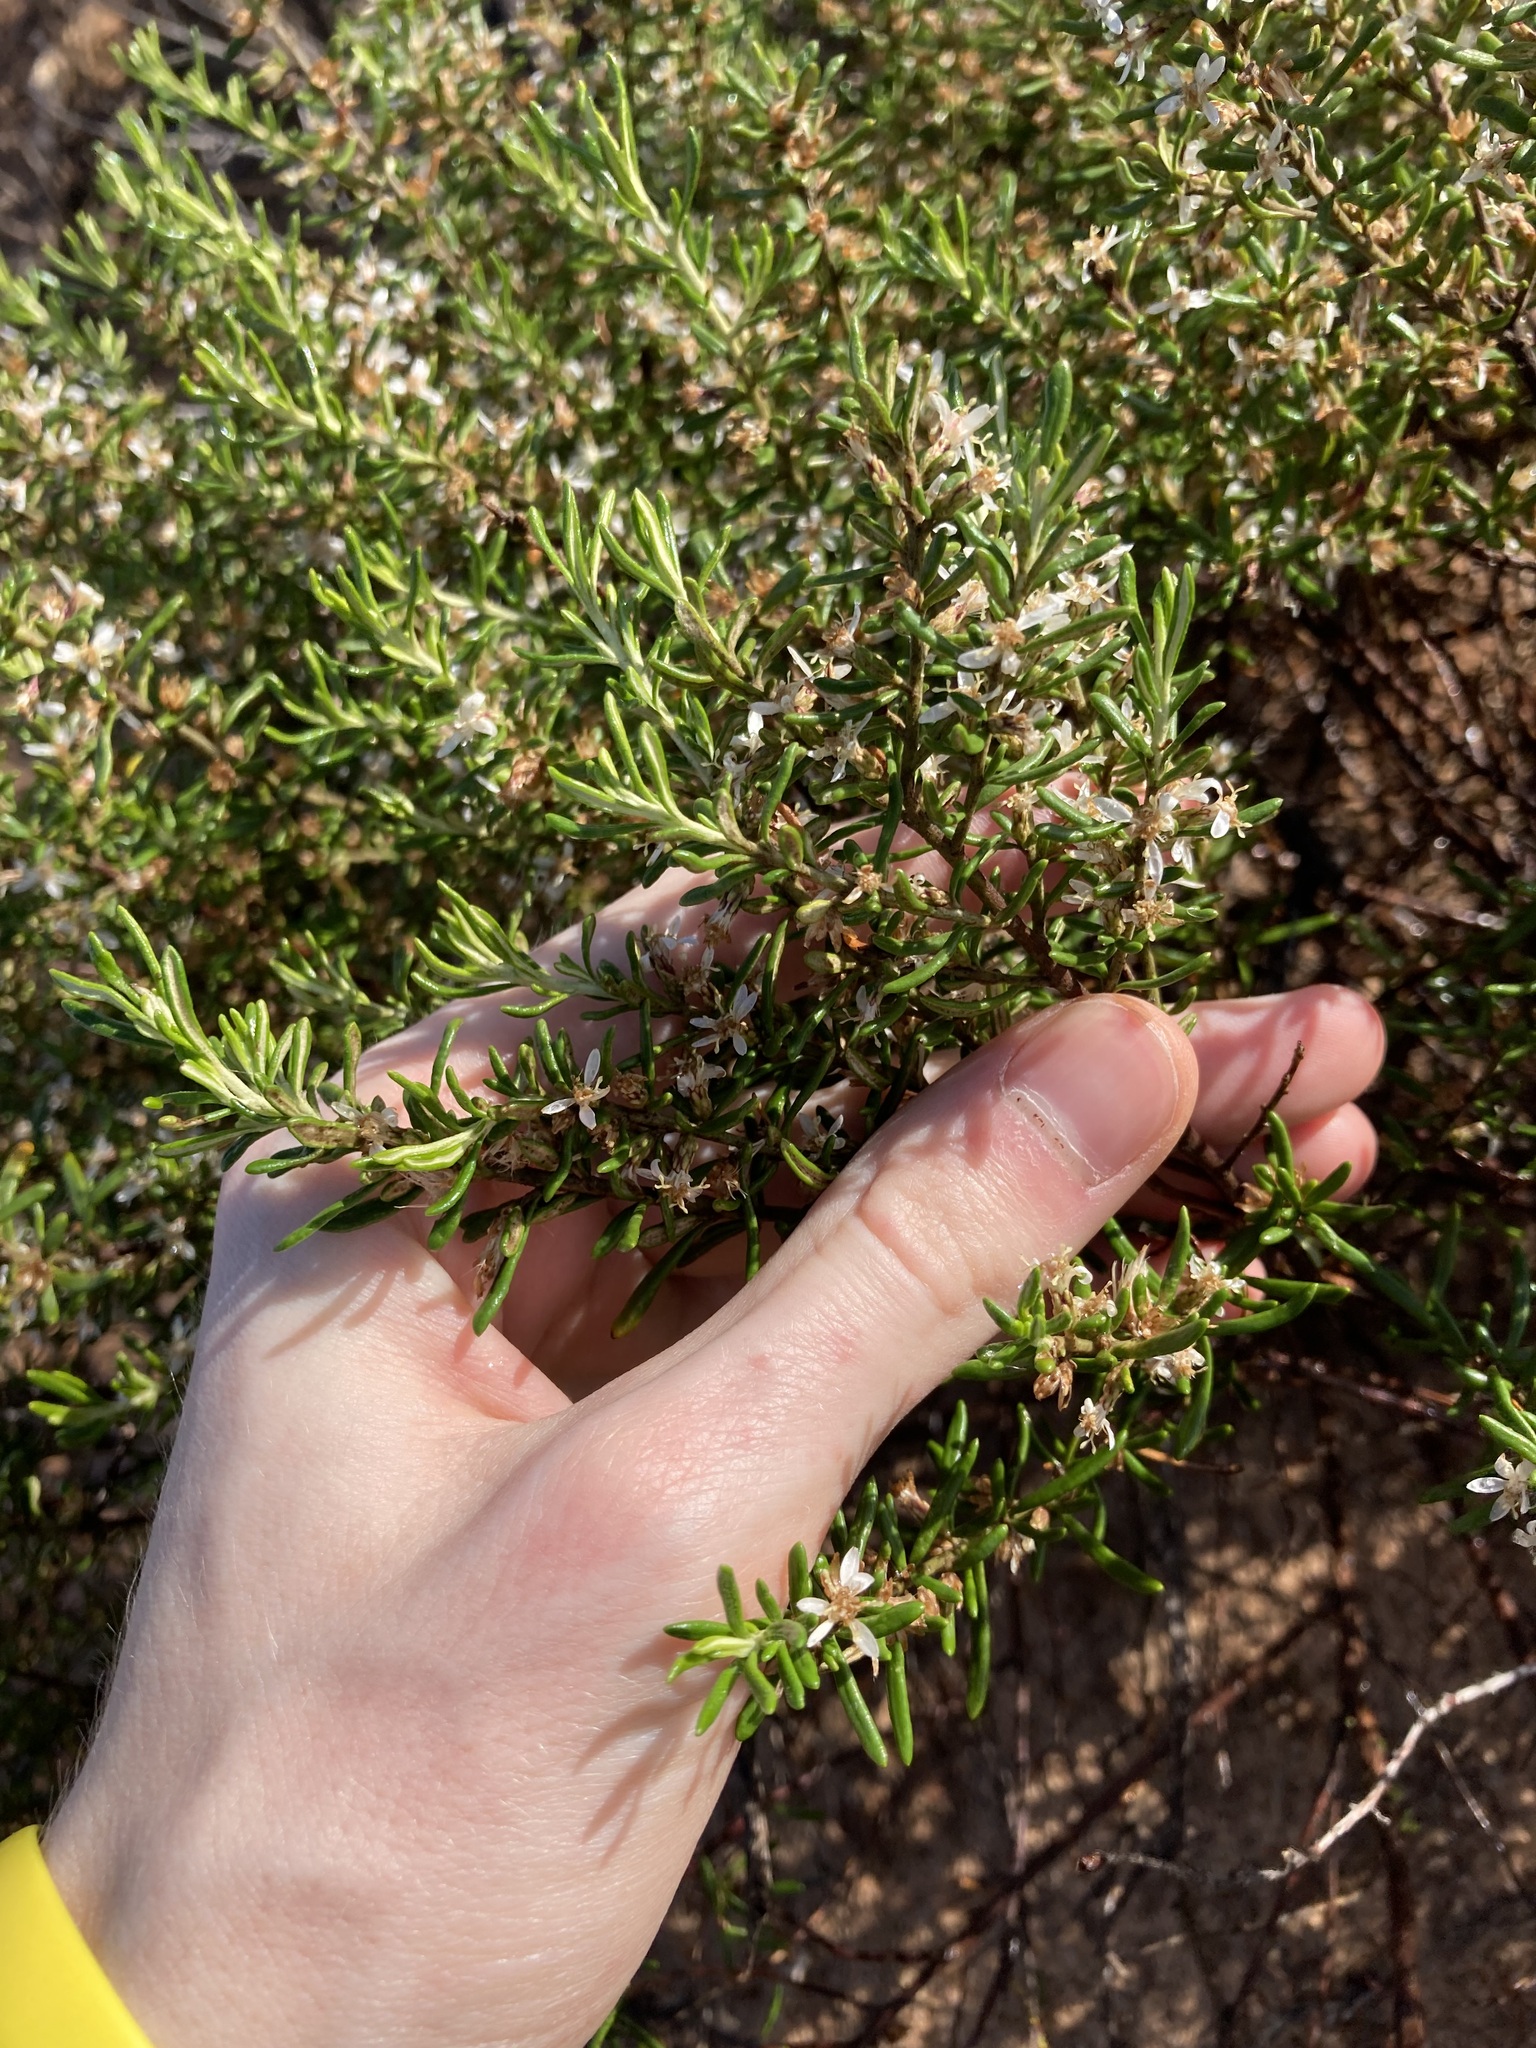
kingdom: Plantae
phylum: Tracheophyta
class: Magnoliopsida
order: Asterales
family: Asteraceae
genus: Olearia
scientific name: Olearia revoluta
